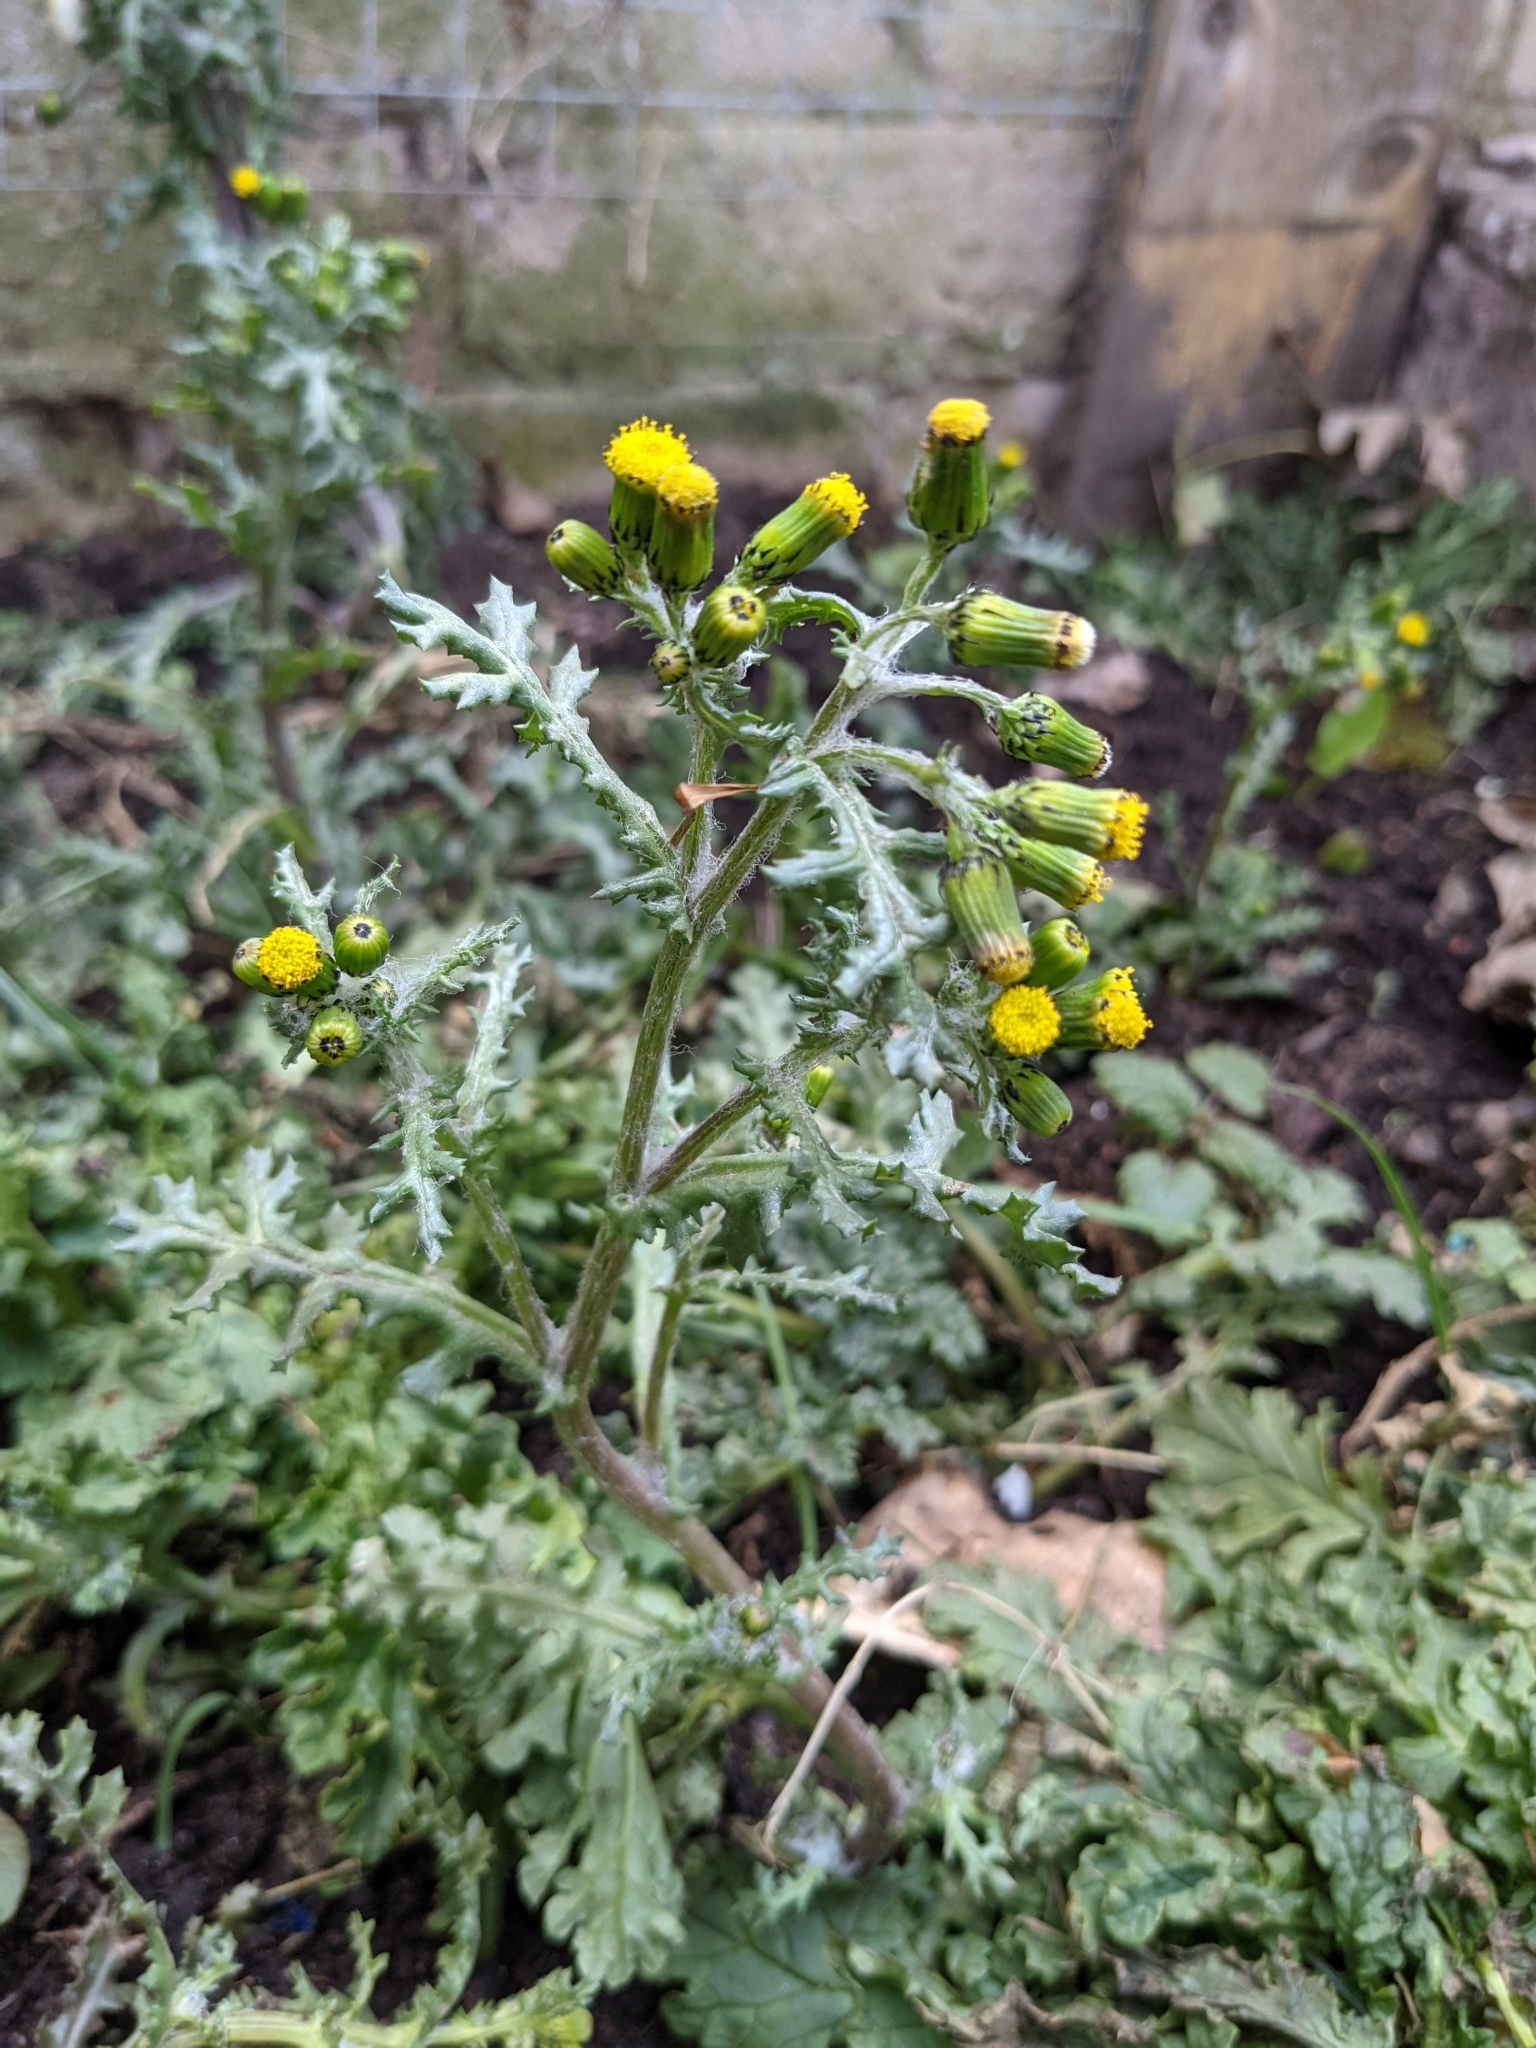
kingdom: Plantae
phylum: Tracheophyta
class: Magnoliopsida
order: Asterales
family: Asteraceae
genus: Senecio
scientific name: Senecio vulgaris
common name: Old-man-in-the-spring
